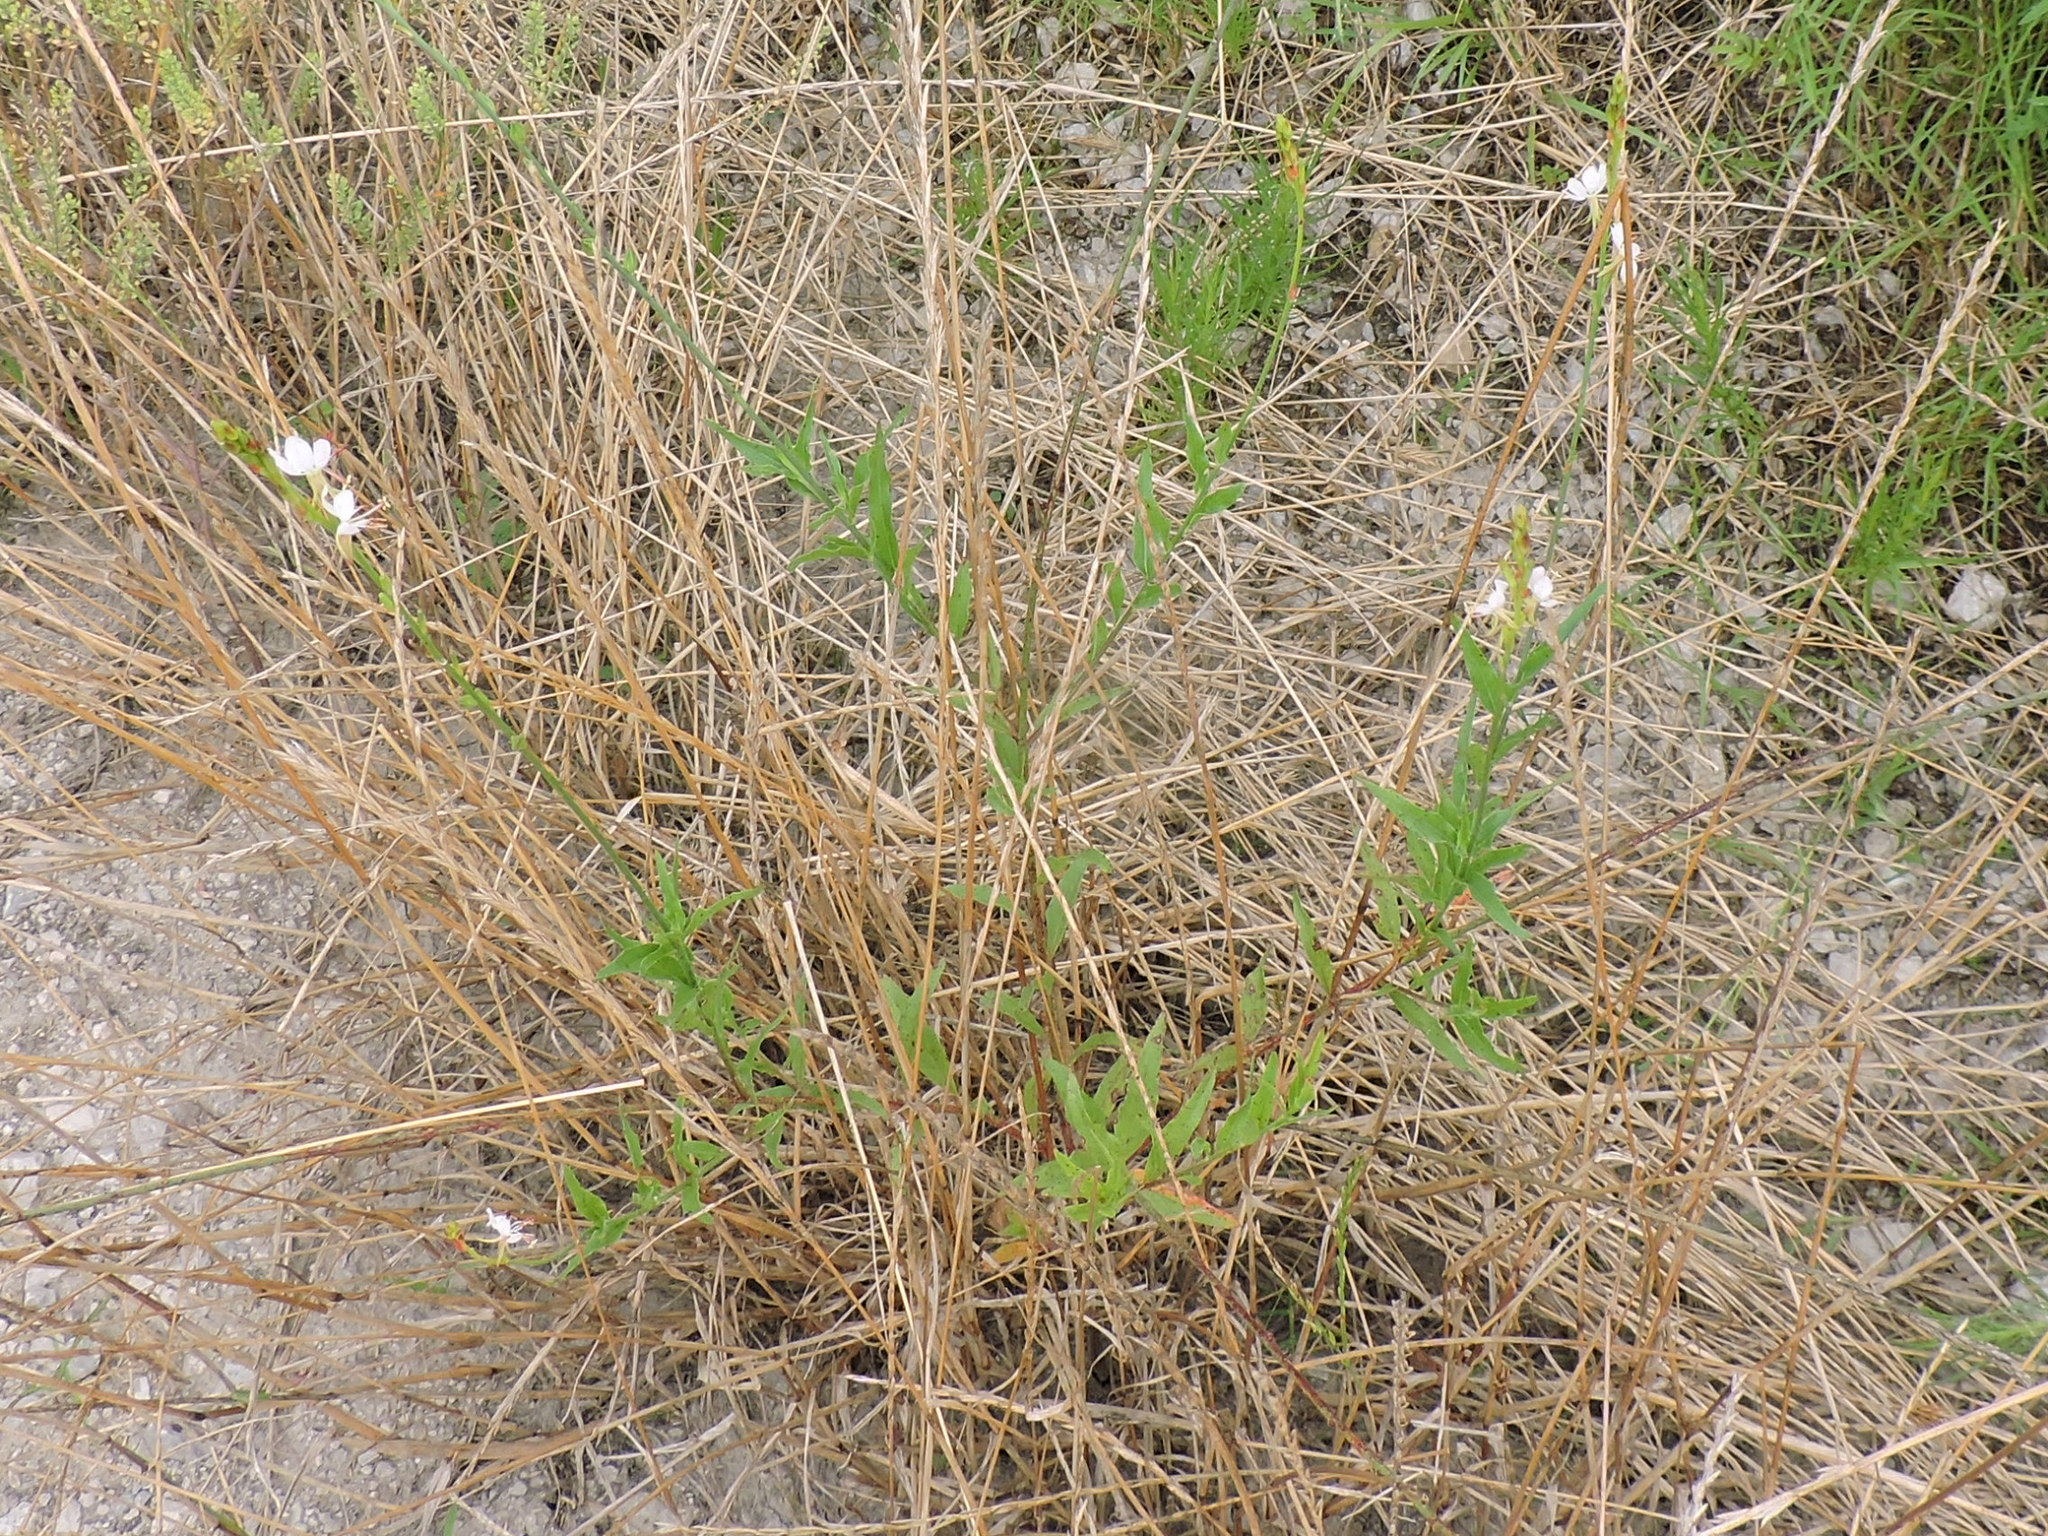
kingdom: Plantae
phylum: Tracheophyta
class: Magnoliopsida
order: Myrtales
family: Onagraceae
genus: Oenothera
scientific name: Oenothera suffulta
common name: Kisses
